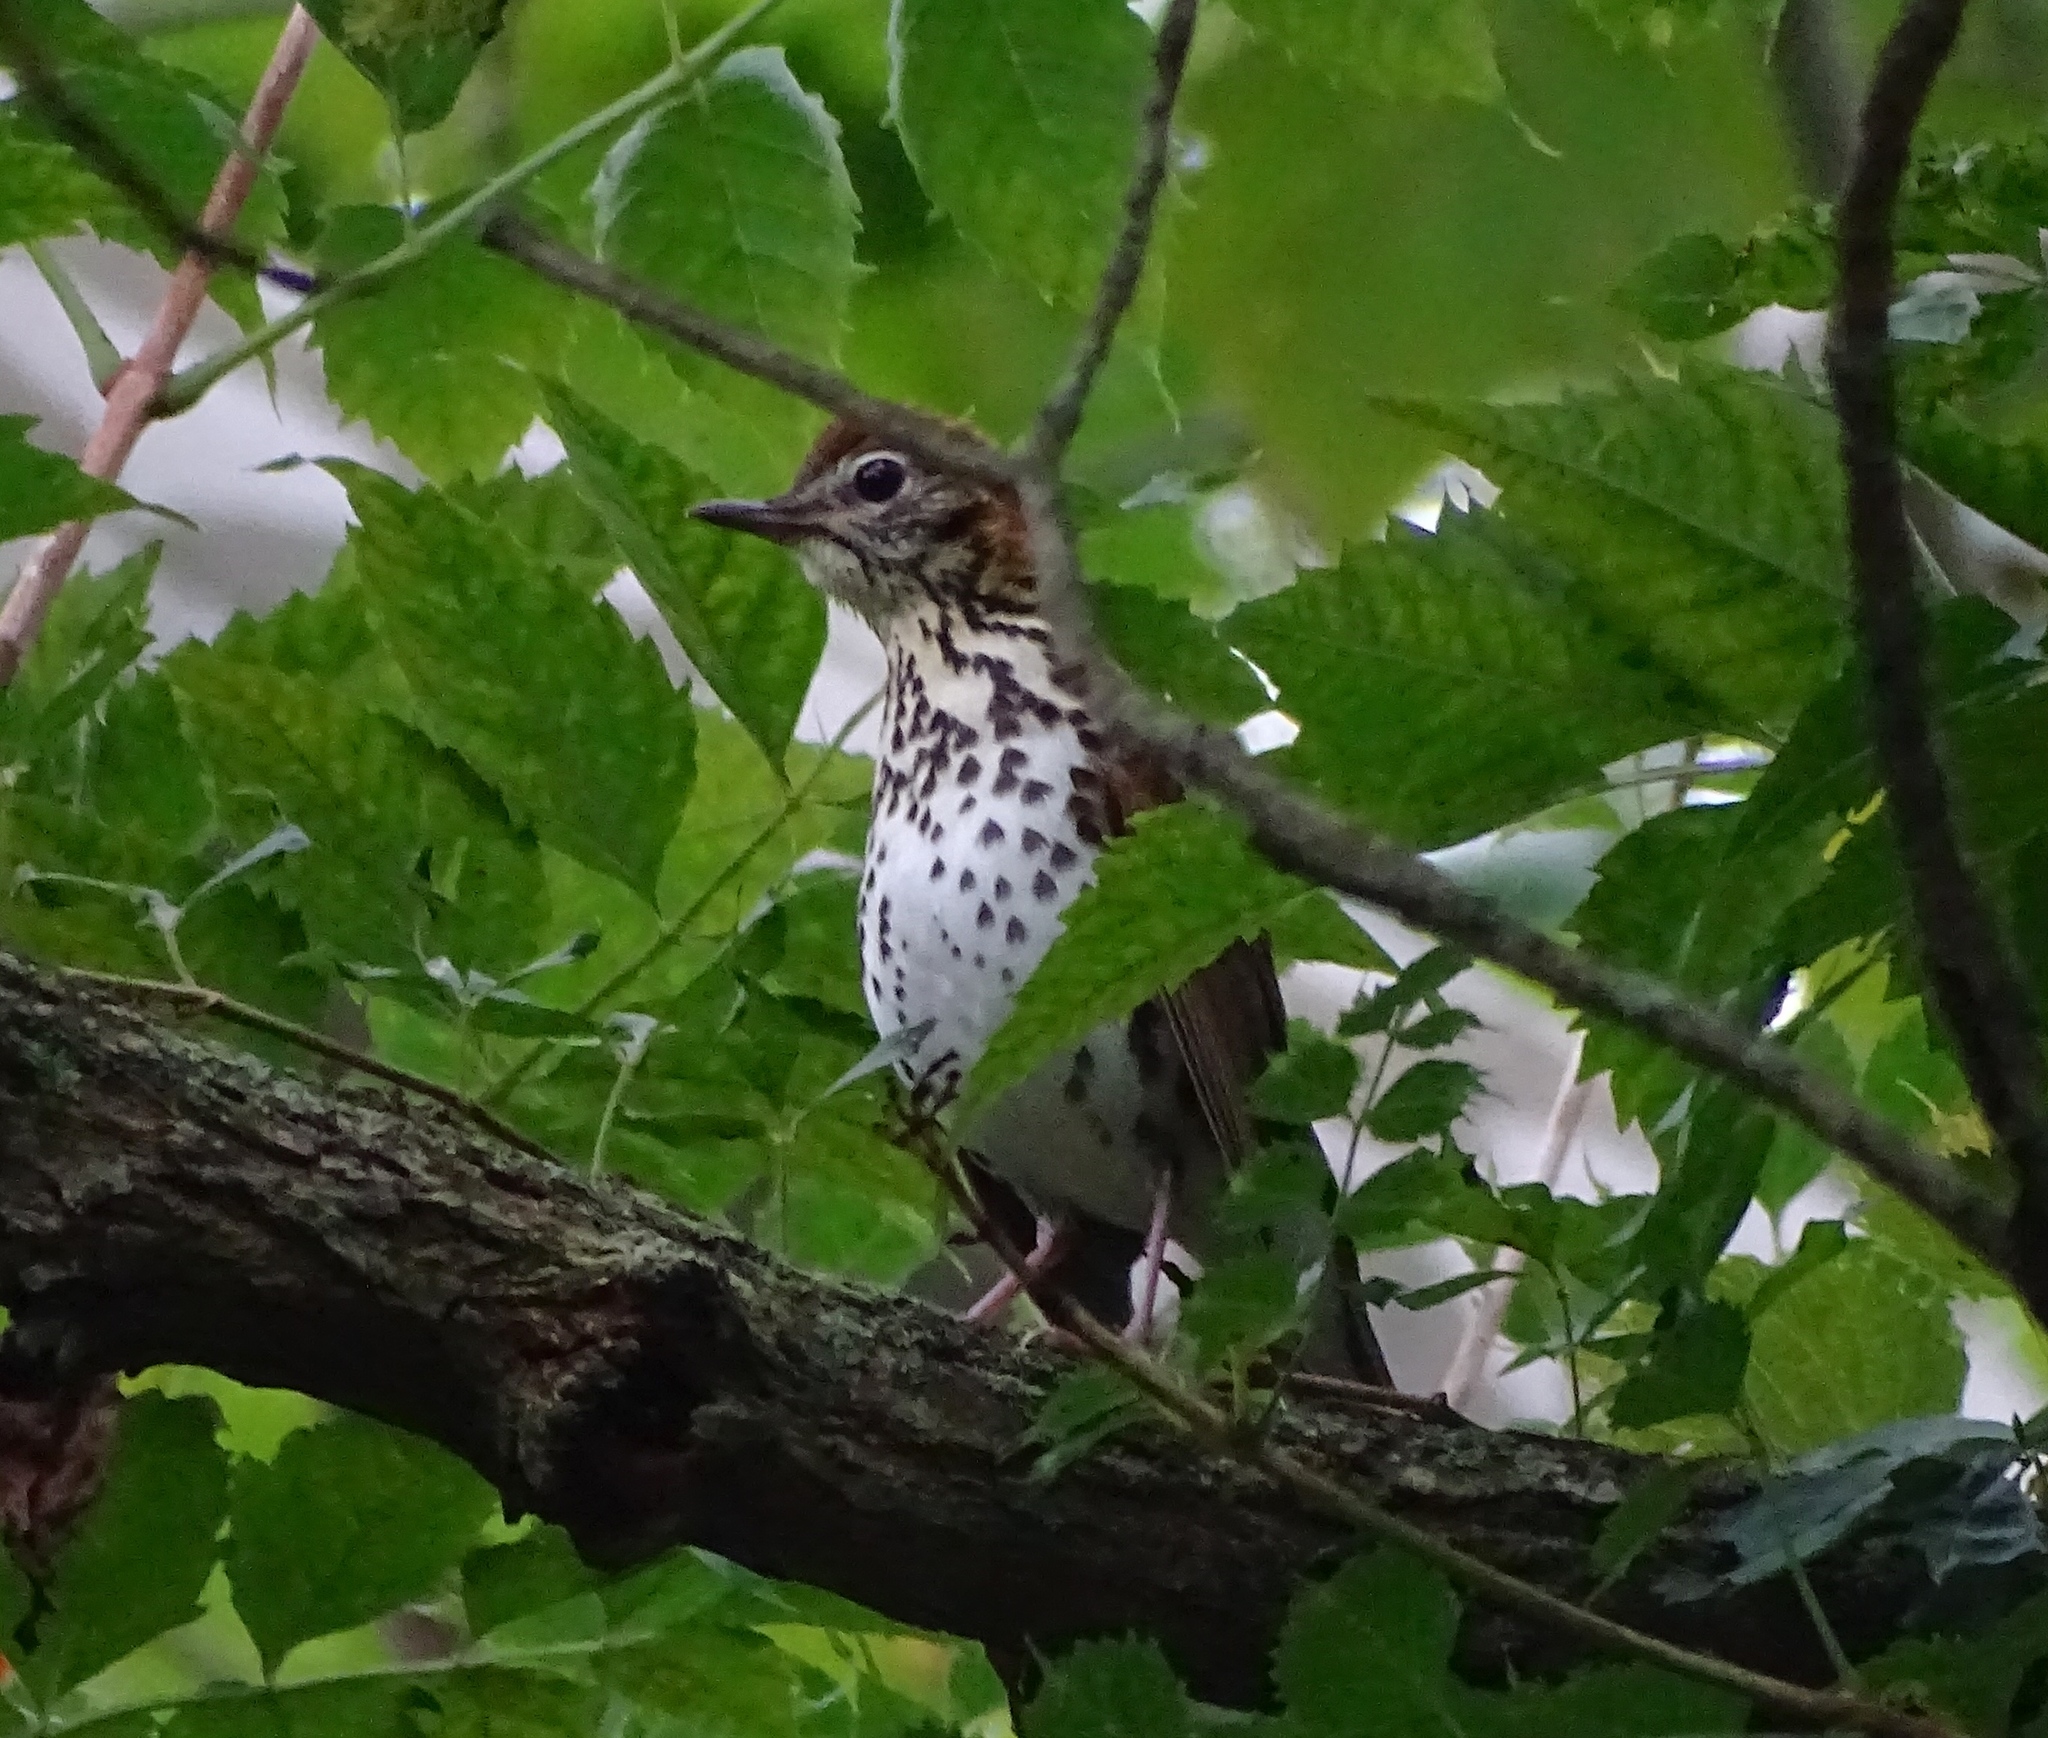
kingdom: Animalia
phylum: Chordata
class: Aves
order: Passeriformes
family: Turdidae
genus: Hylocichla
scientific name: Hylocichla mustelina
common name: Wood thrush
